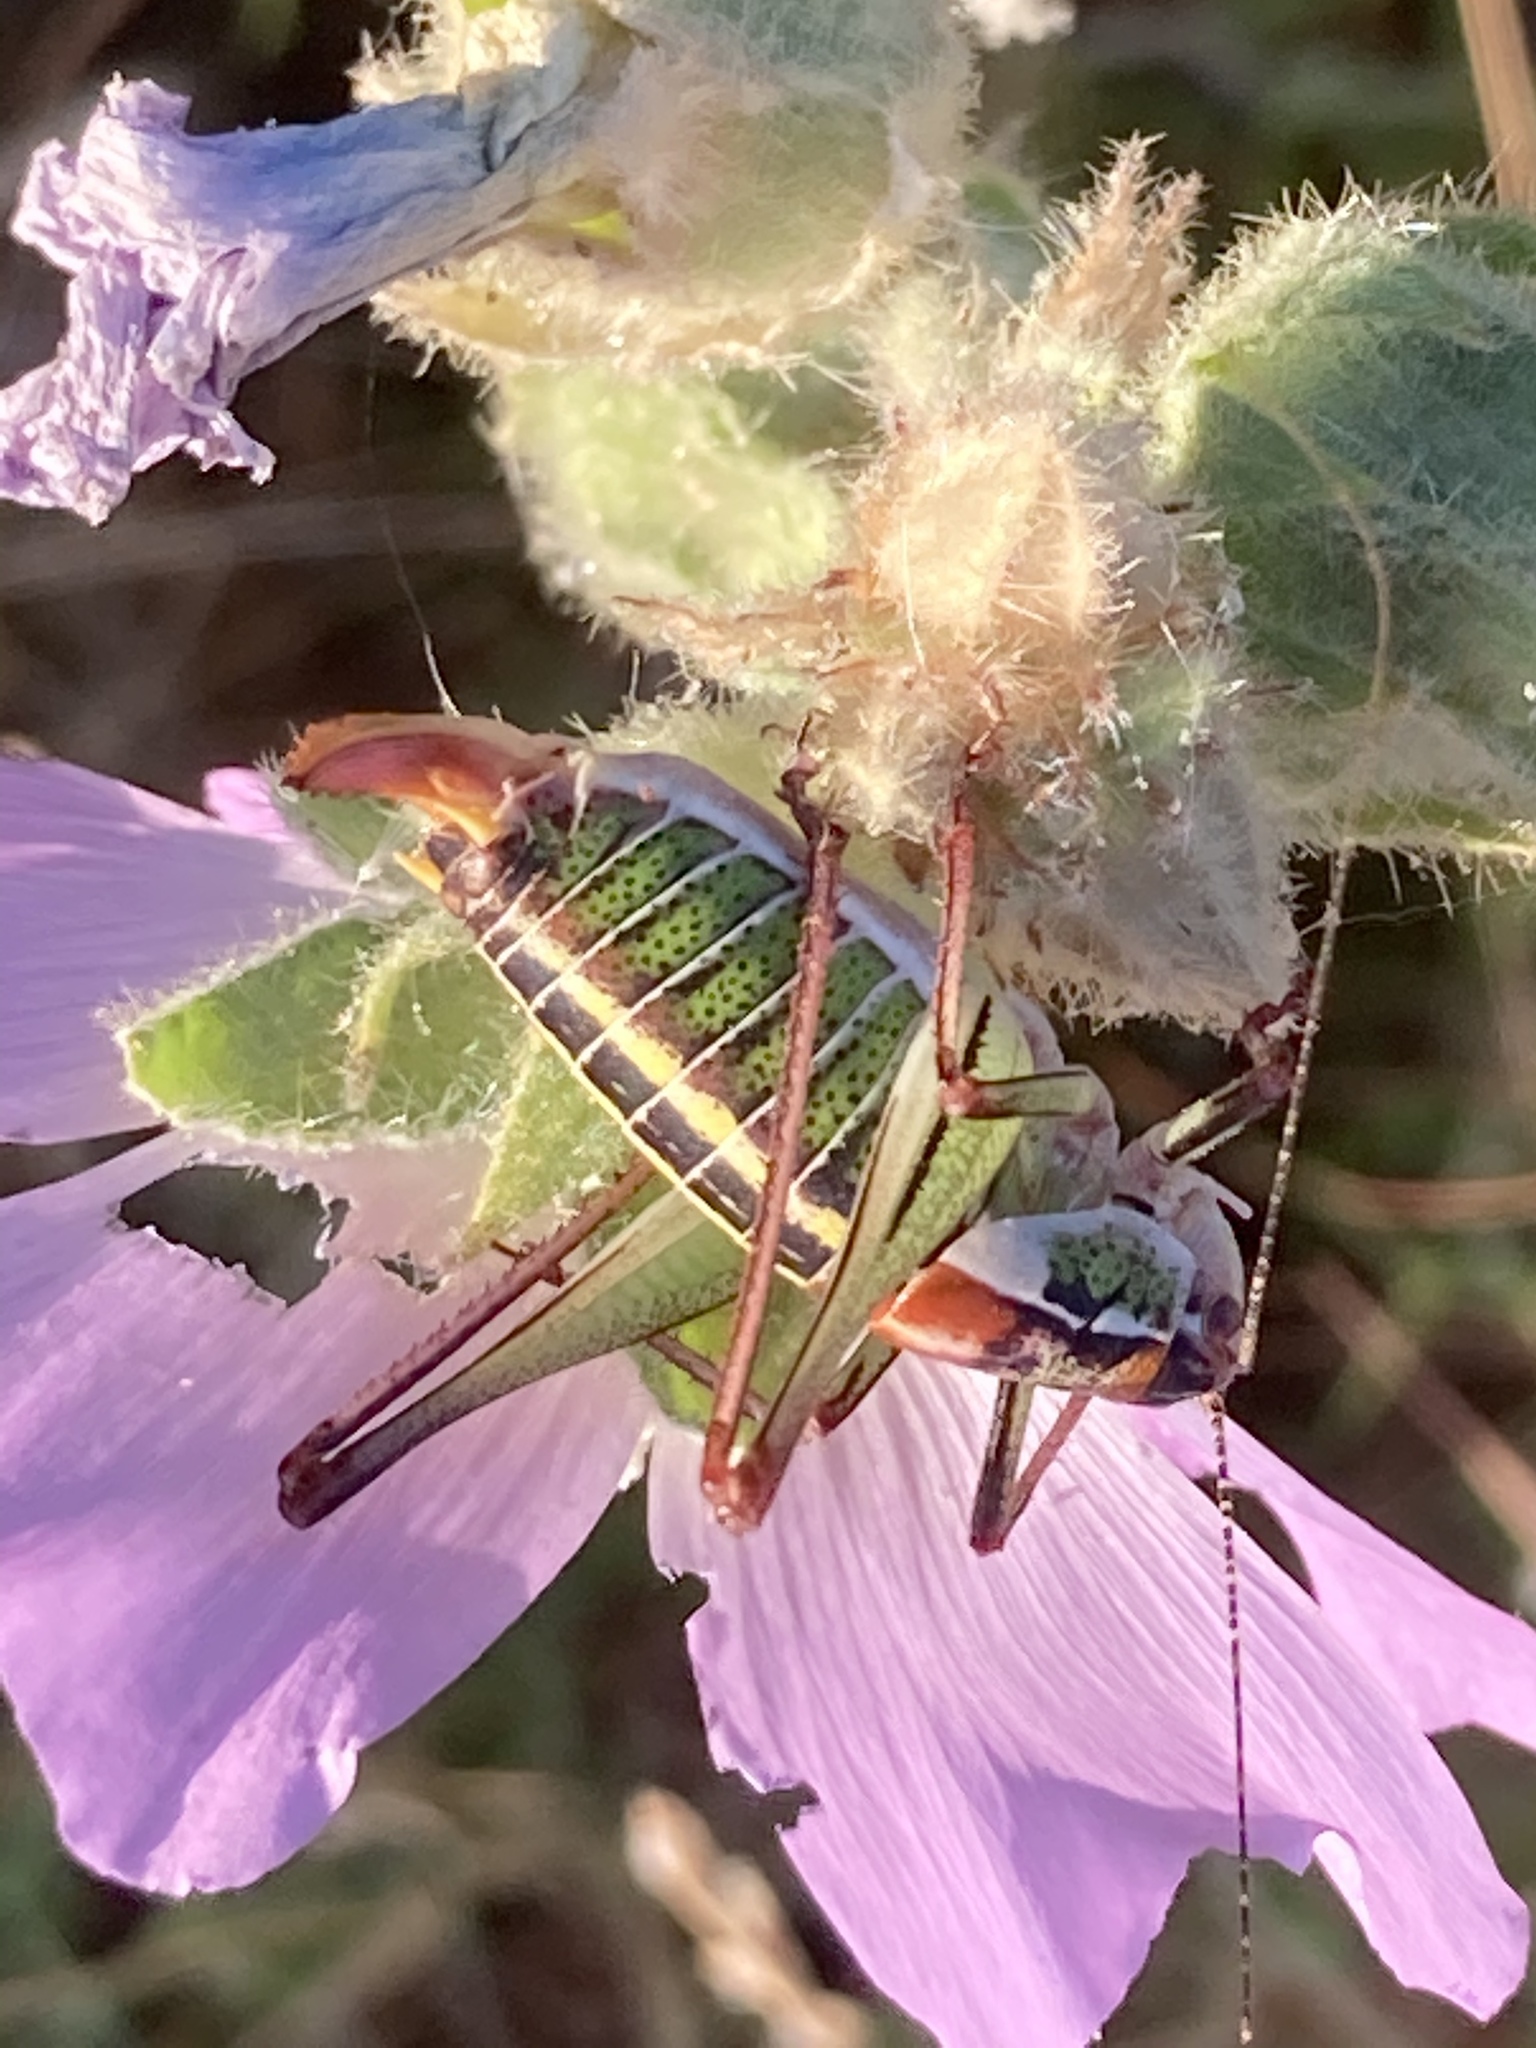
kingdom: Animalia
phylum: Arthropoda
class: Insecta
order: Orthoptera
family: Tettigoniidae
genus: Poecilimon
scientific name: Poecilimon mytilenensis
